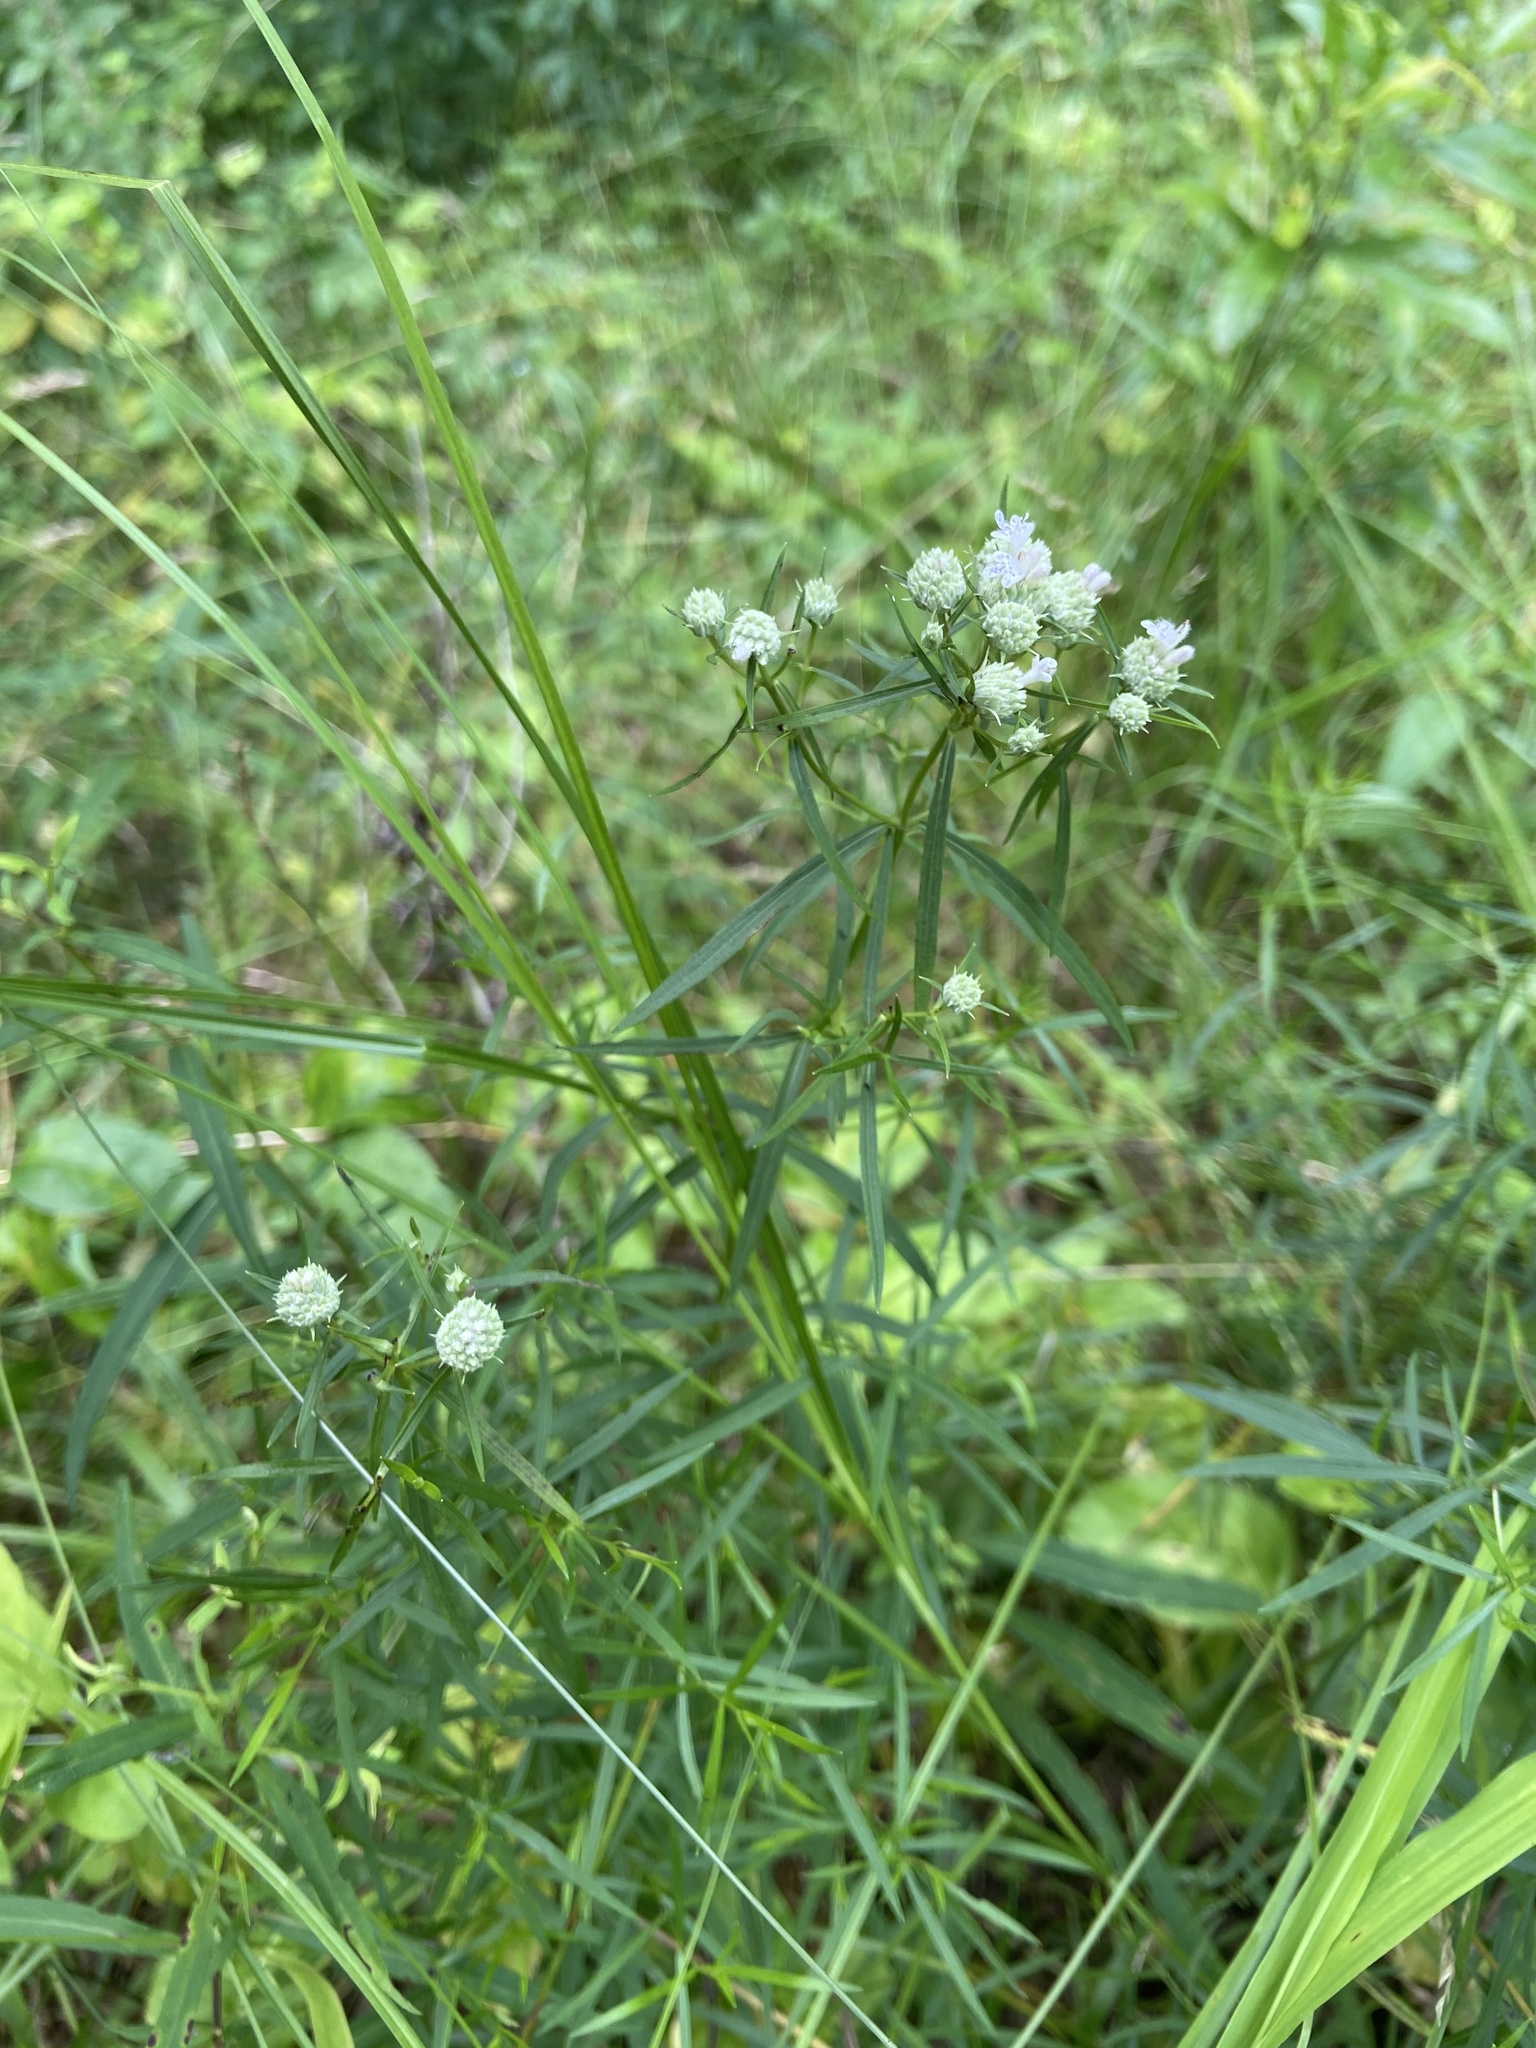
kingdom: Plantae
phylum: Tracheophyta
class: Magnoliopsida
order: Lamiales
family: Lamiaceae
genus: Pycnanthemum
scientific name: Pycnanthemum tenuifolium
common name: Narrow-leaf mountain-mint
